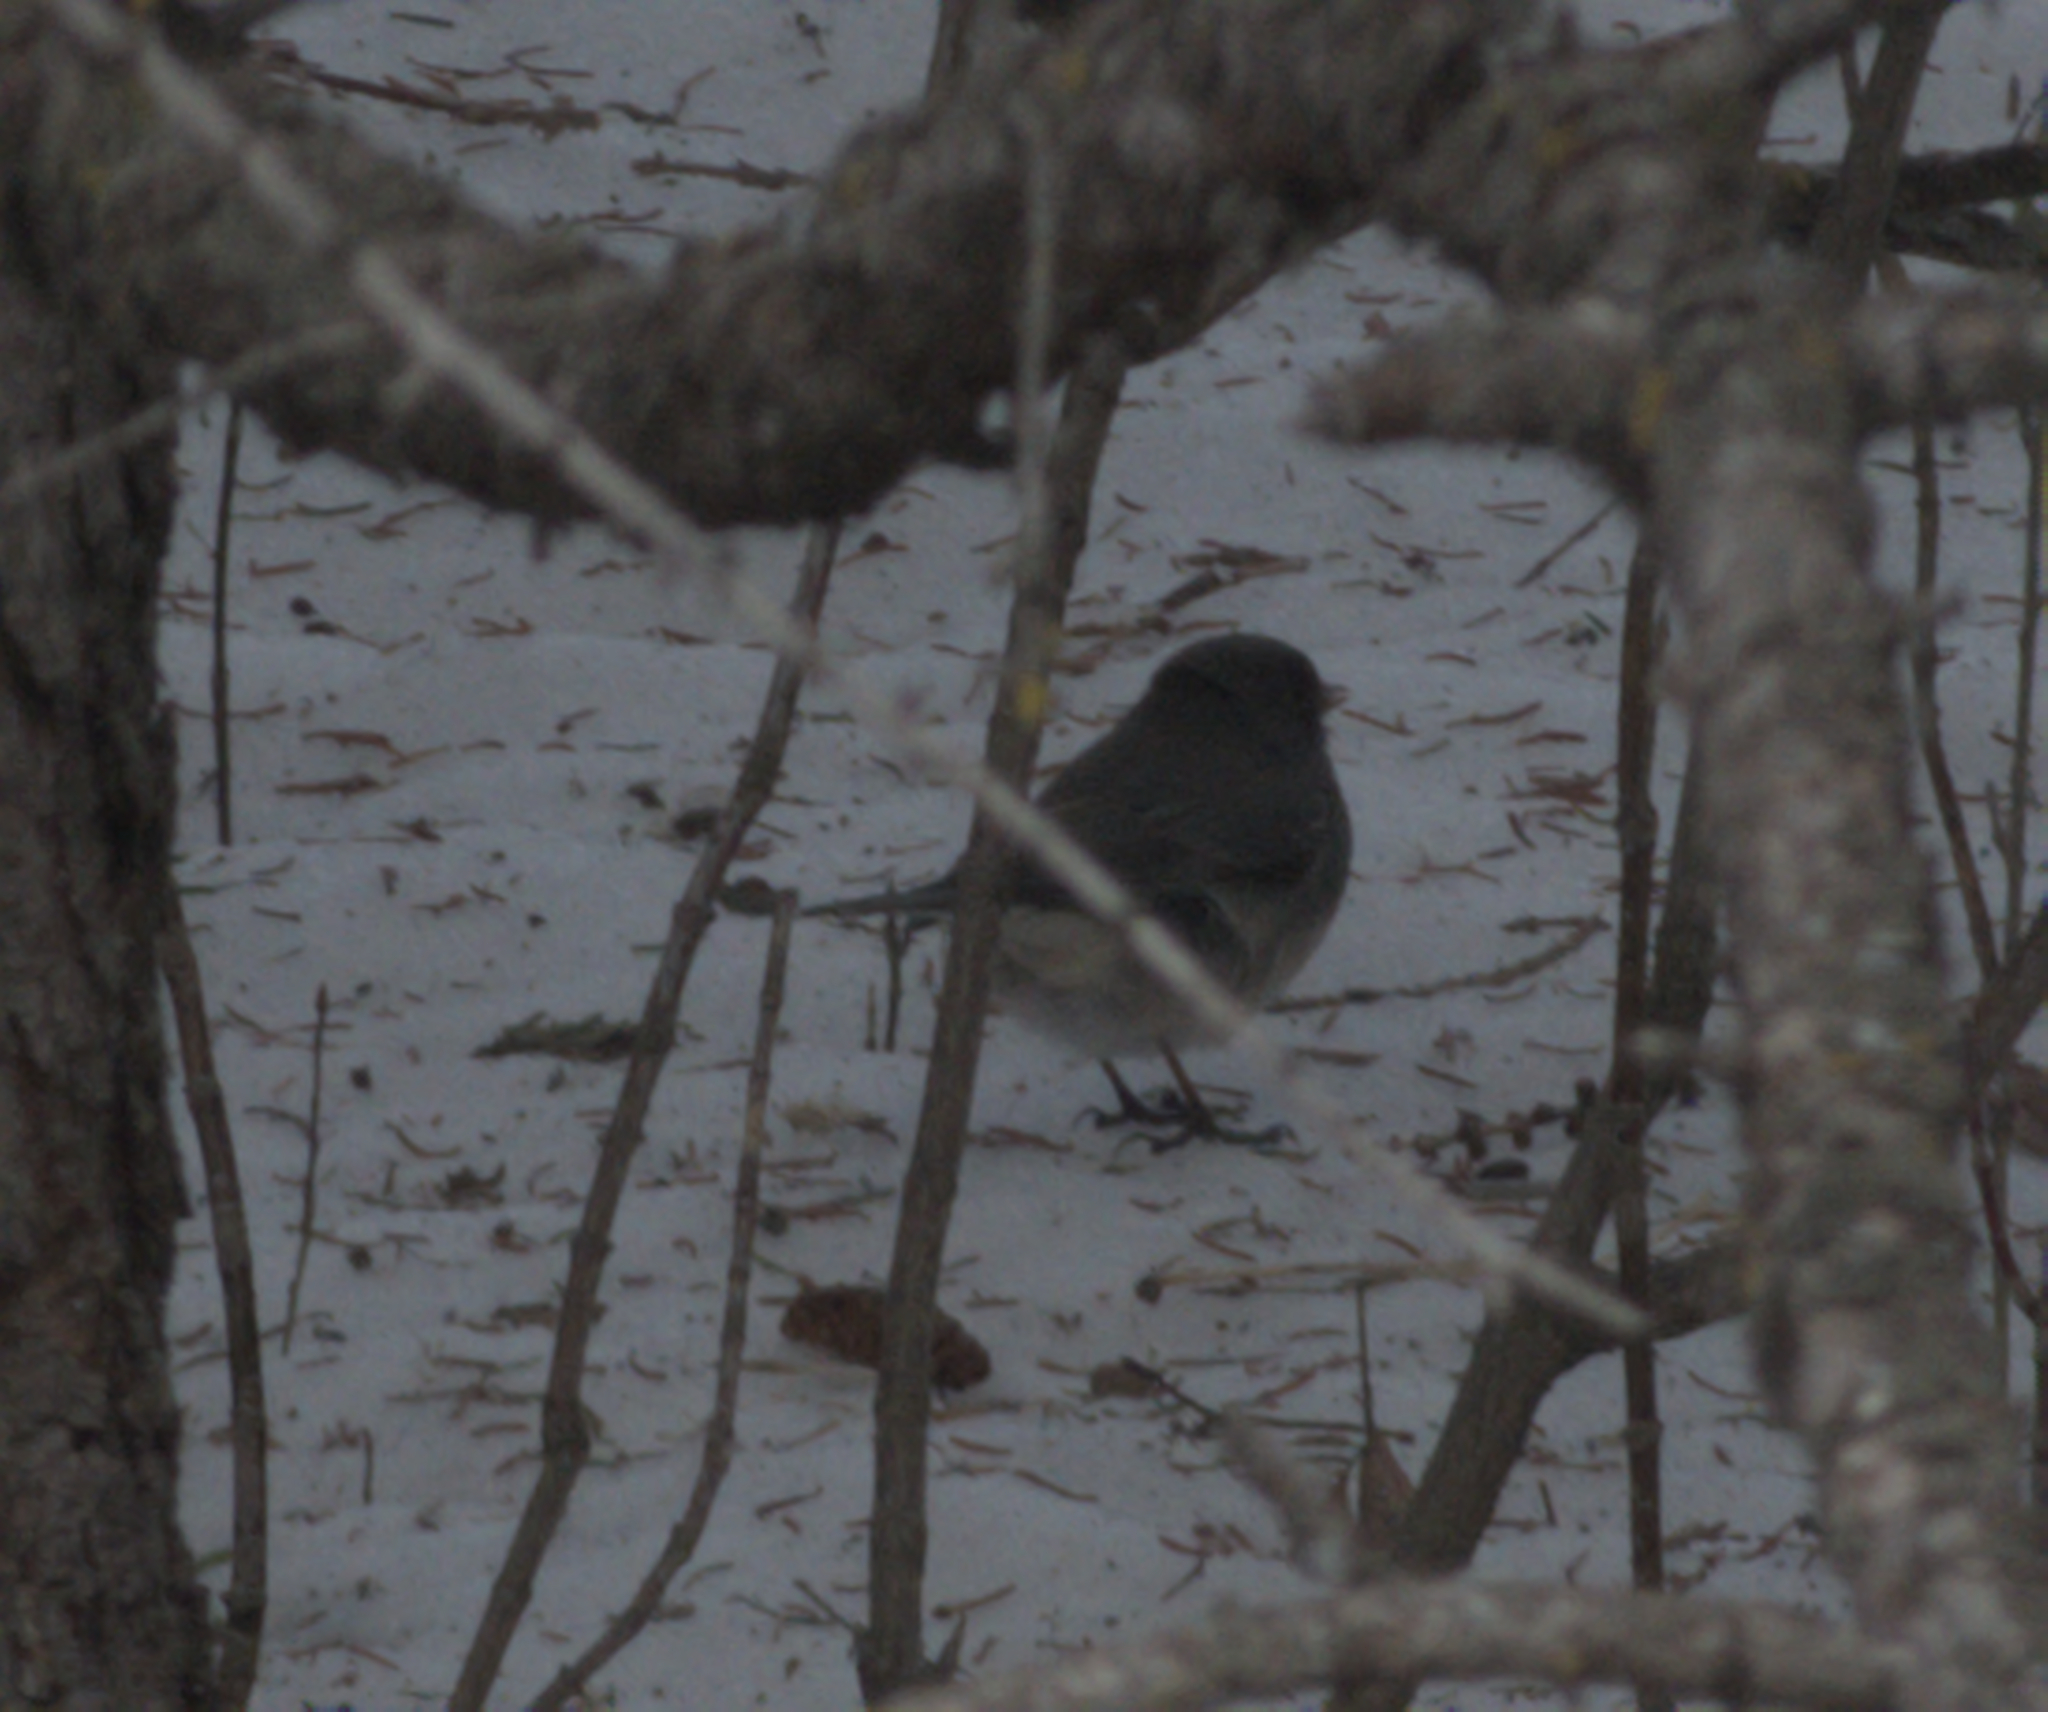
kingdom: Animalia
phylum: Chordata
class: Aves
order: Passeriformes
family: Passerellidae
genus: Junco
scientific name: Junco hyemalis
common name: Dark-eyed junco
